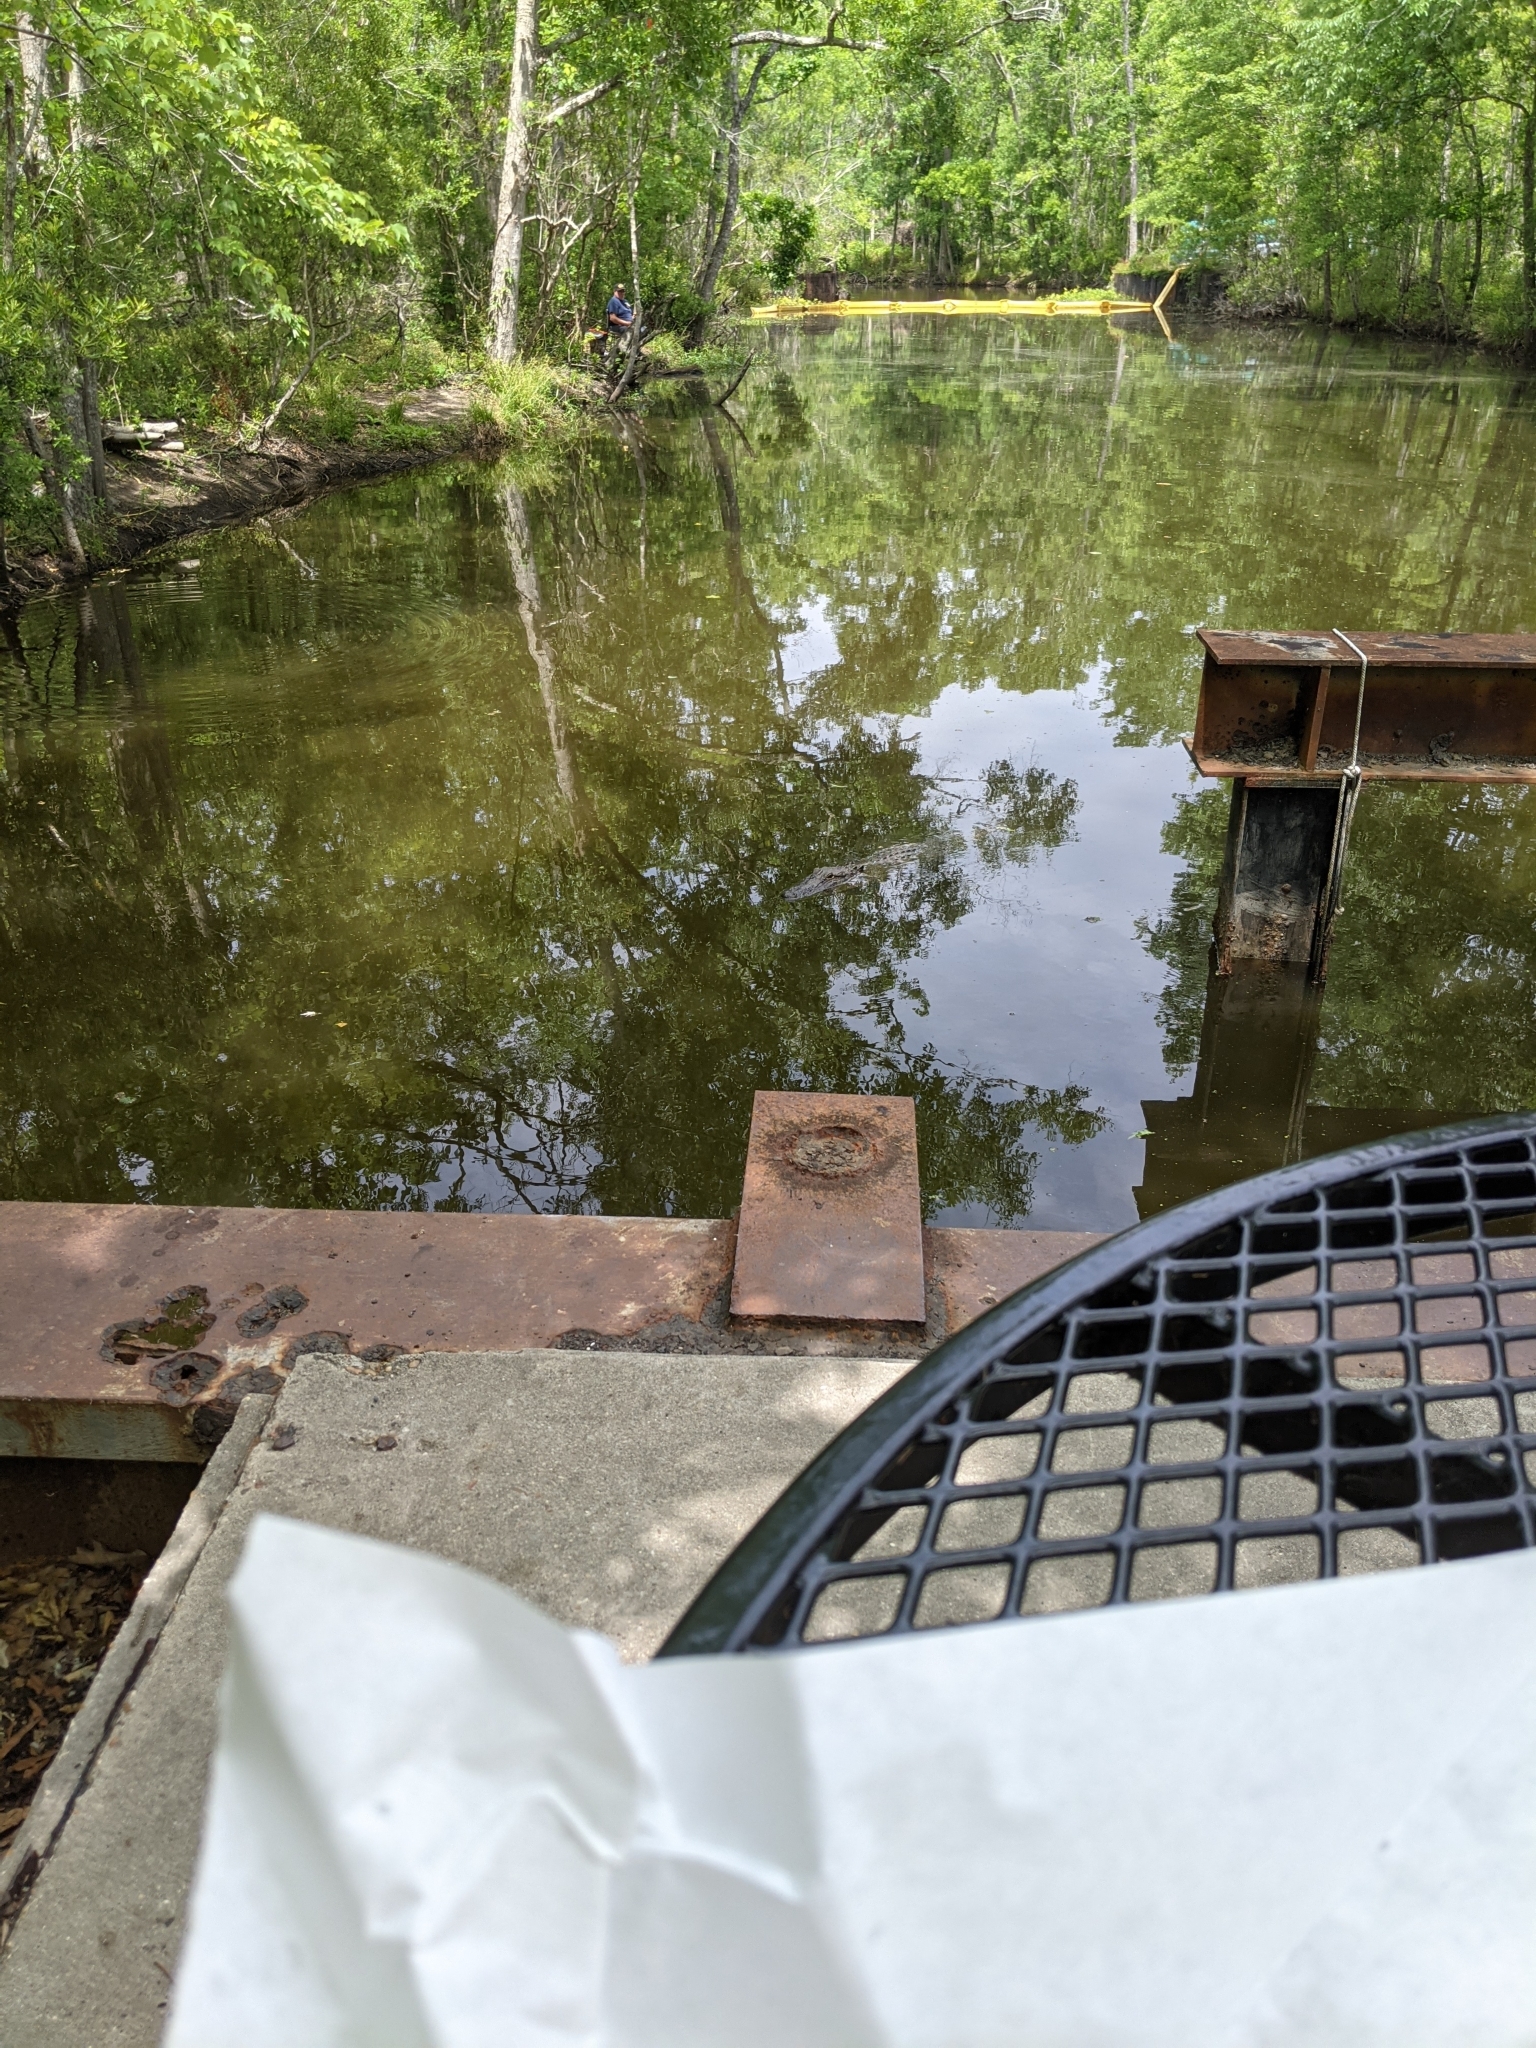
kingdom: Animalia
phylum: Chordata
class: Crocodylia
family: Alligatoridae
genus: Alligator
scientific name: Alligator mississippiensis
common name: American alligator
